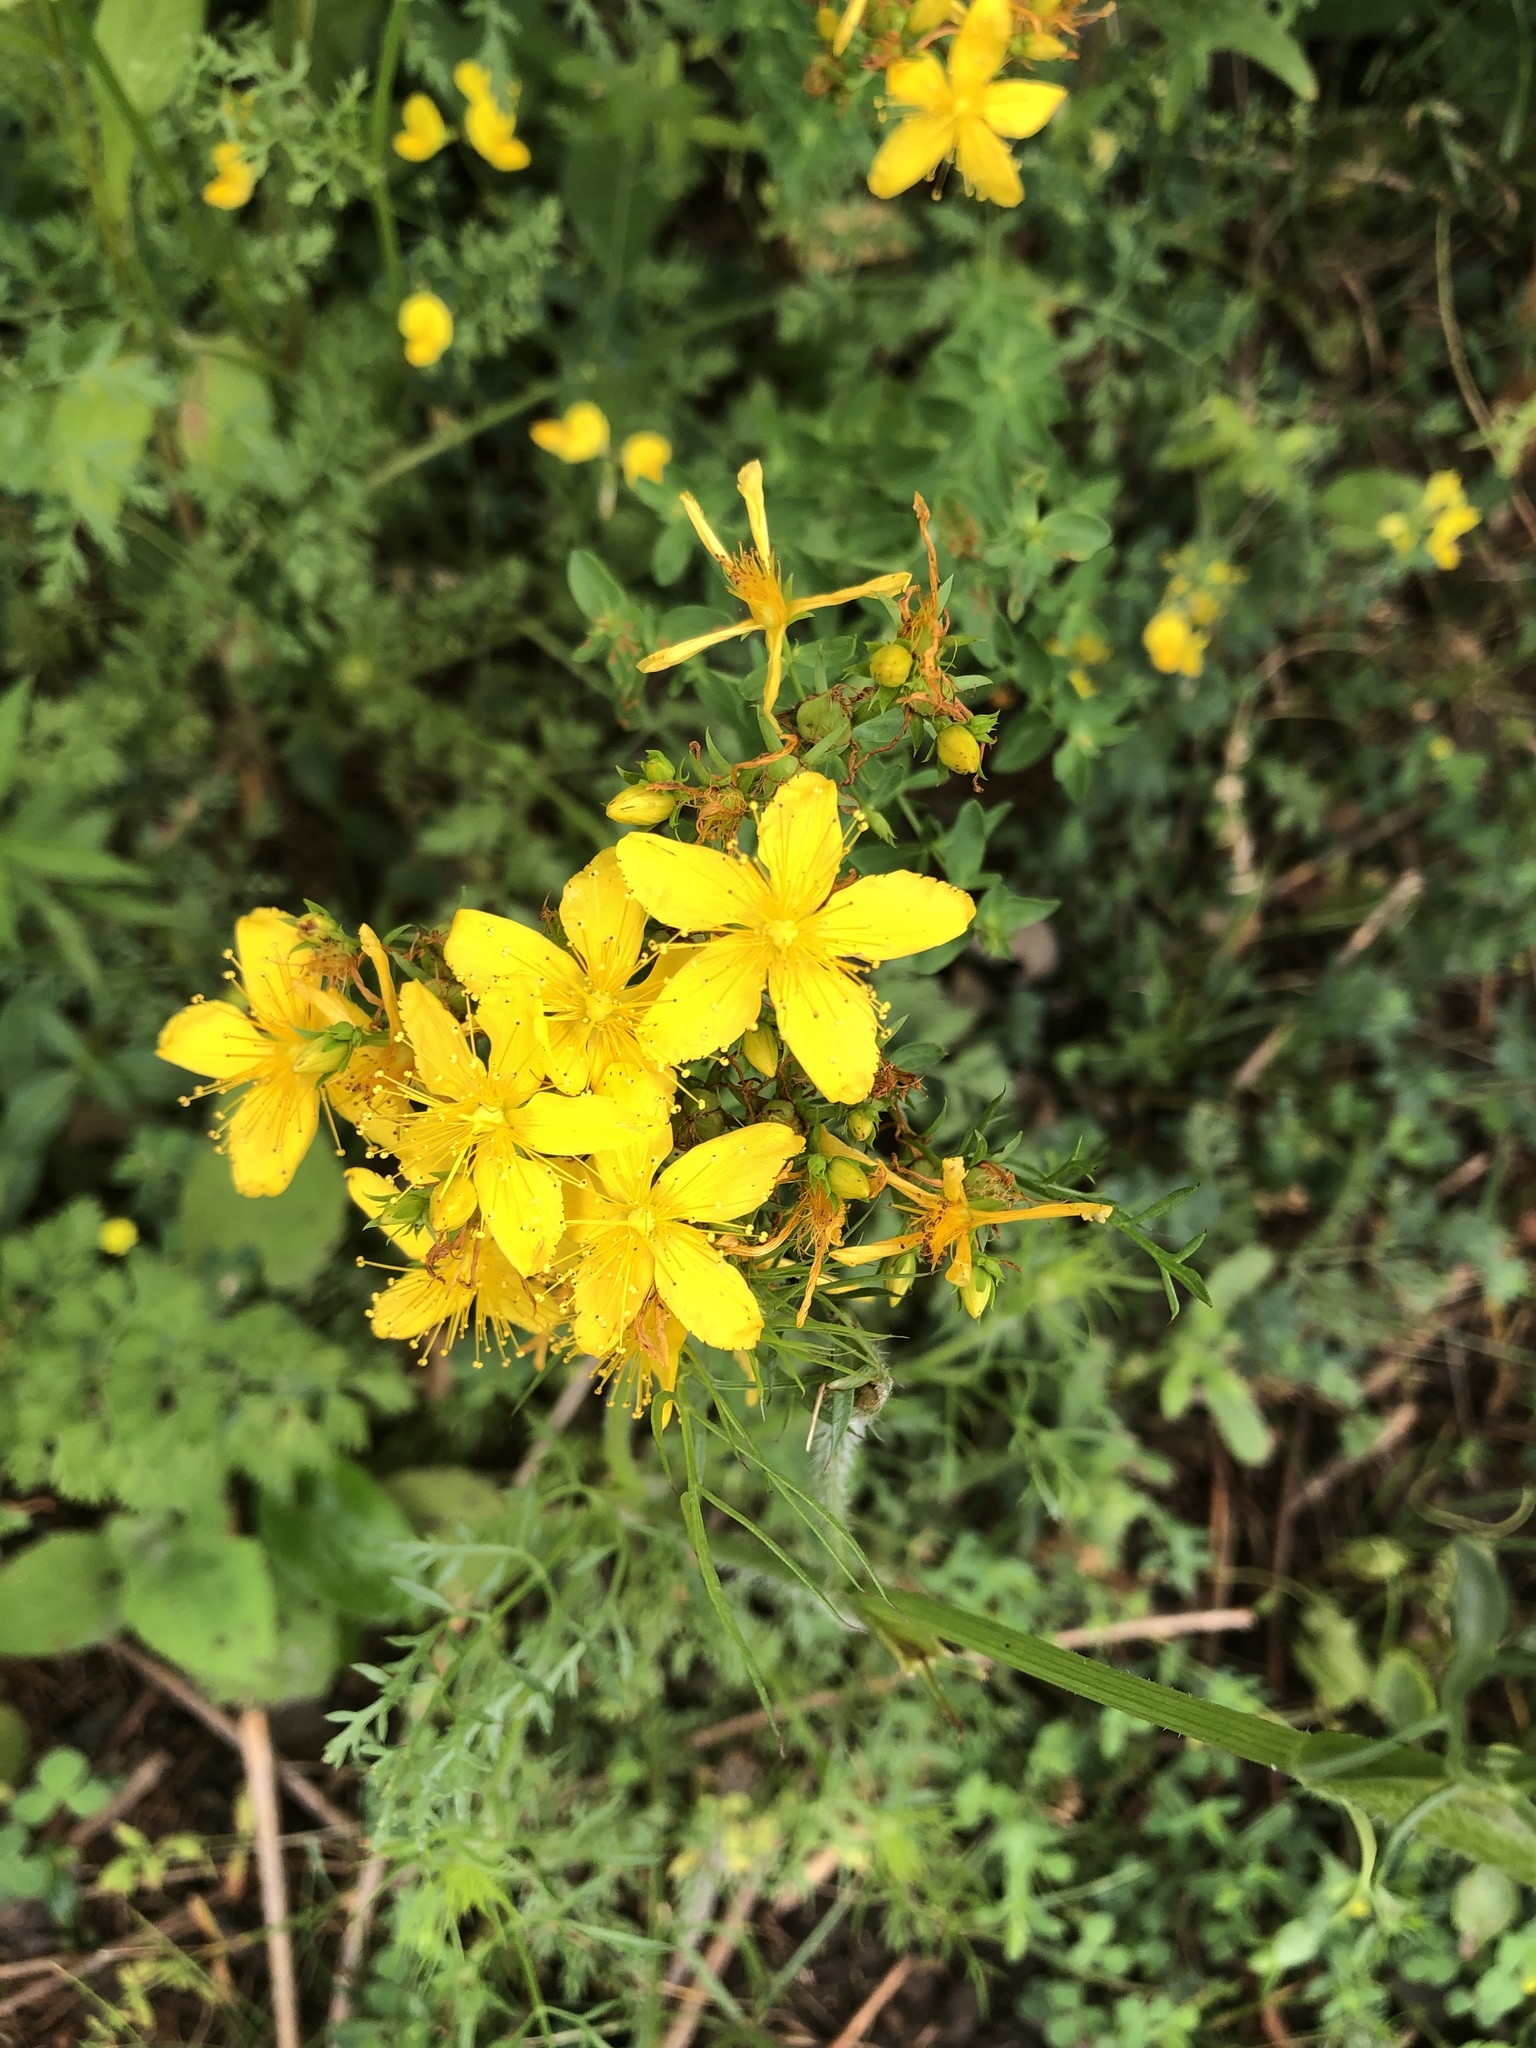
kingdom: Plantae
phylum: Tracheophyta
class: Magnoliopsida
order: Malpighiales
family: Hypericaceae
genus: Hypericum
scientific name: Hypericum perforatum
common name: Common st. johnswort
